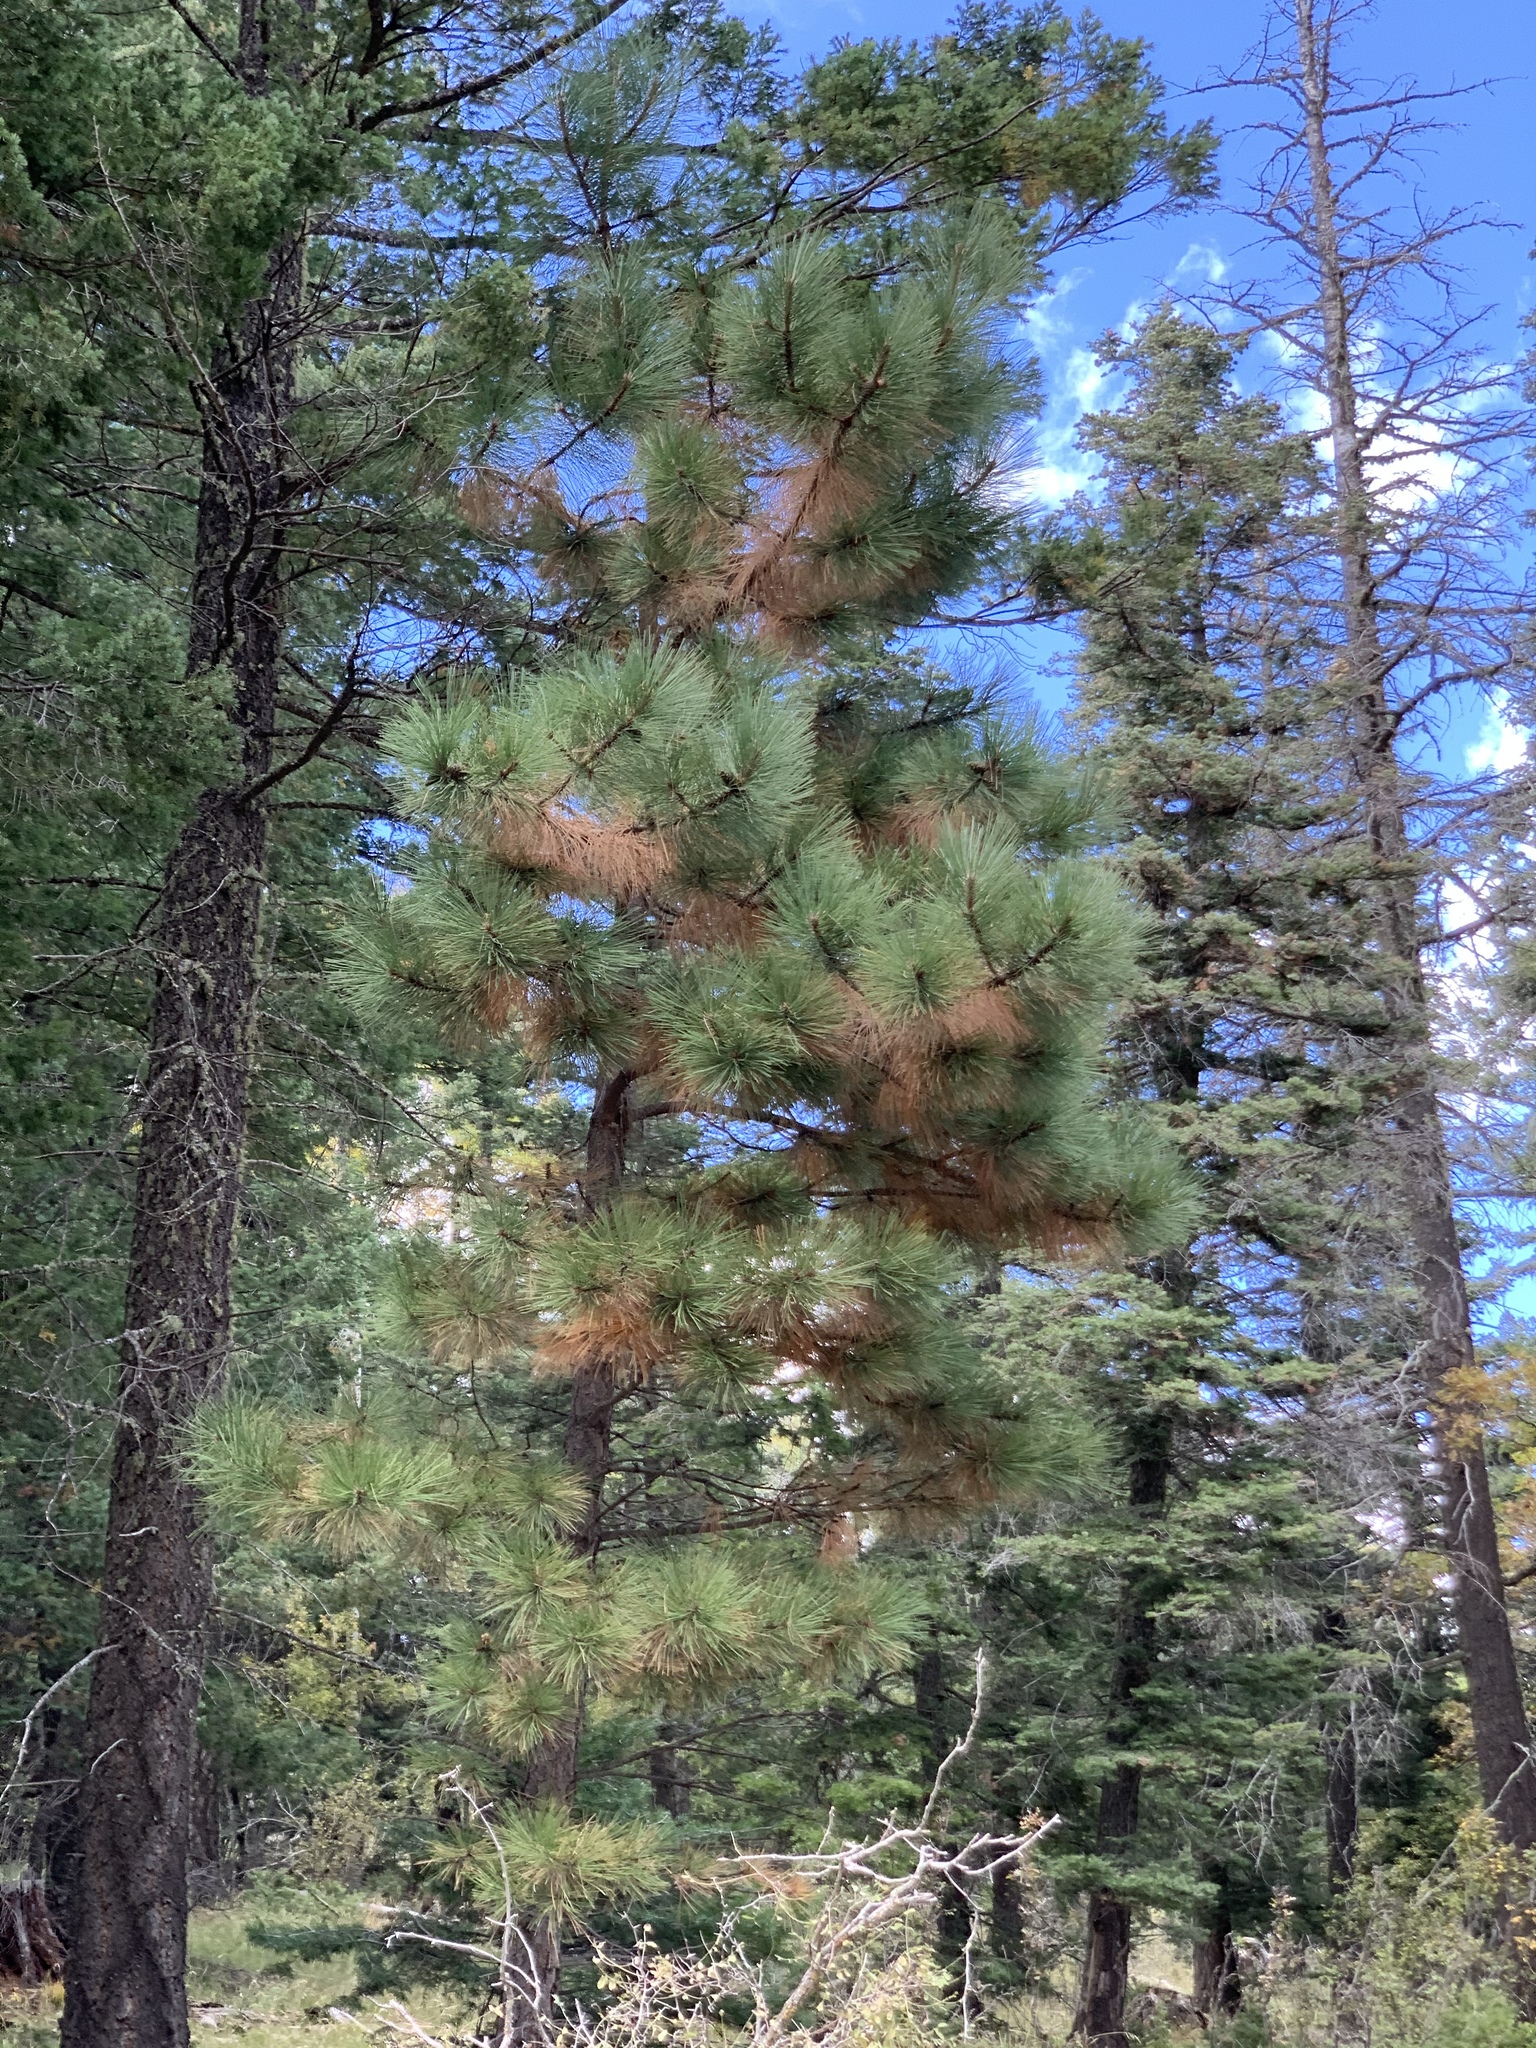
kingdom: Plantae
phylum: Tracheophyta
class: Pinopsida
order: Pinales
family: Pinaceae
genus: Pinus
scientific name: Pinus ponderosa
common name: Western yellow-pine
